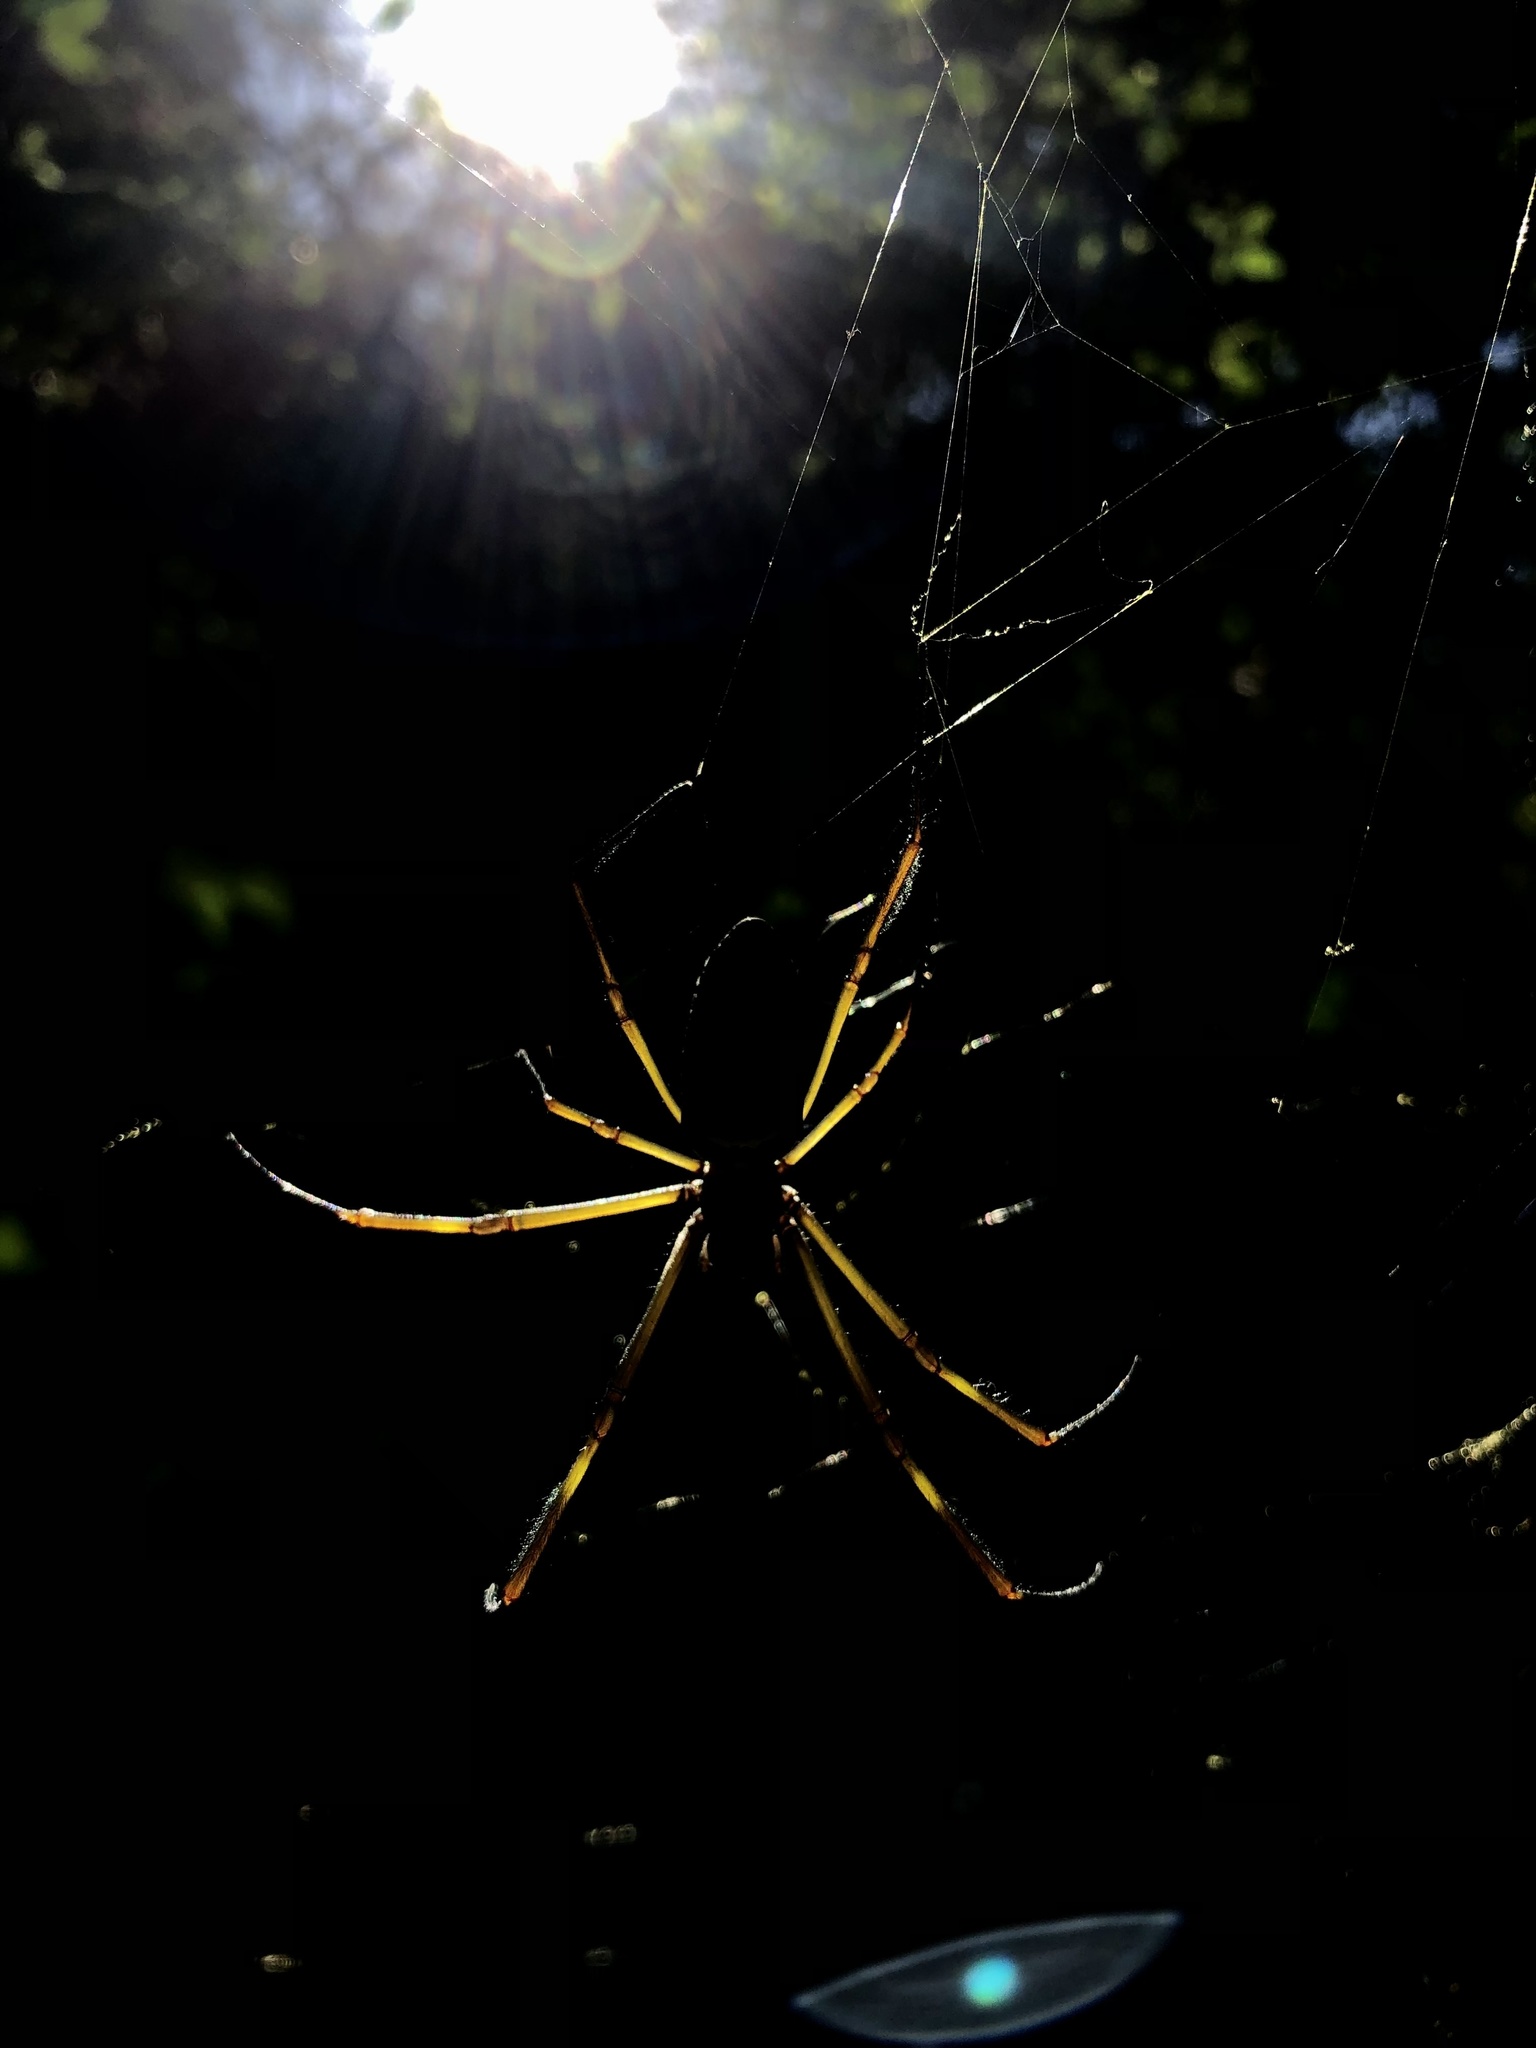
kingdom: Animalia
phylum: Arthropoda
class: Arachnida
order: Araneae
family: Araneidae
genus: Trichonephila
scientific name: Trichonephila clavipes
